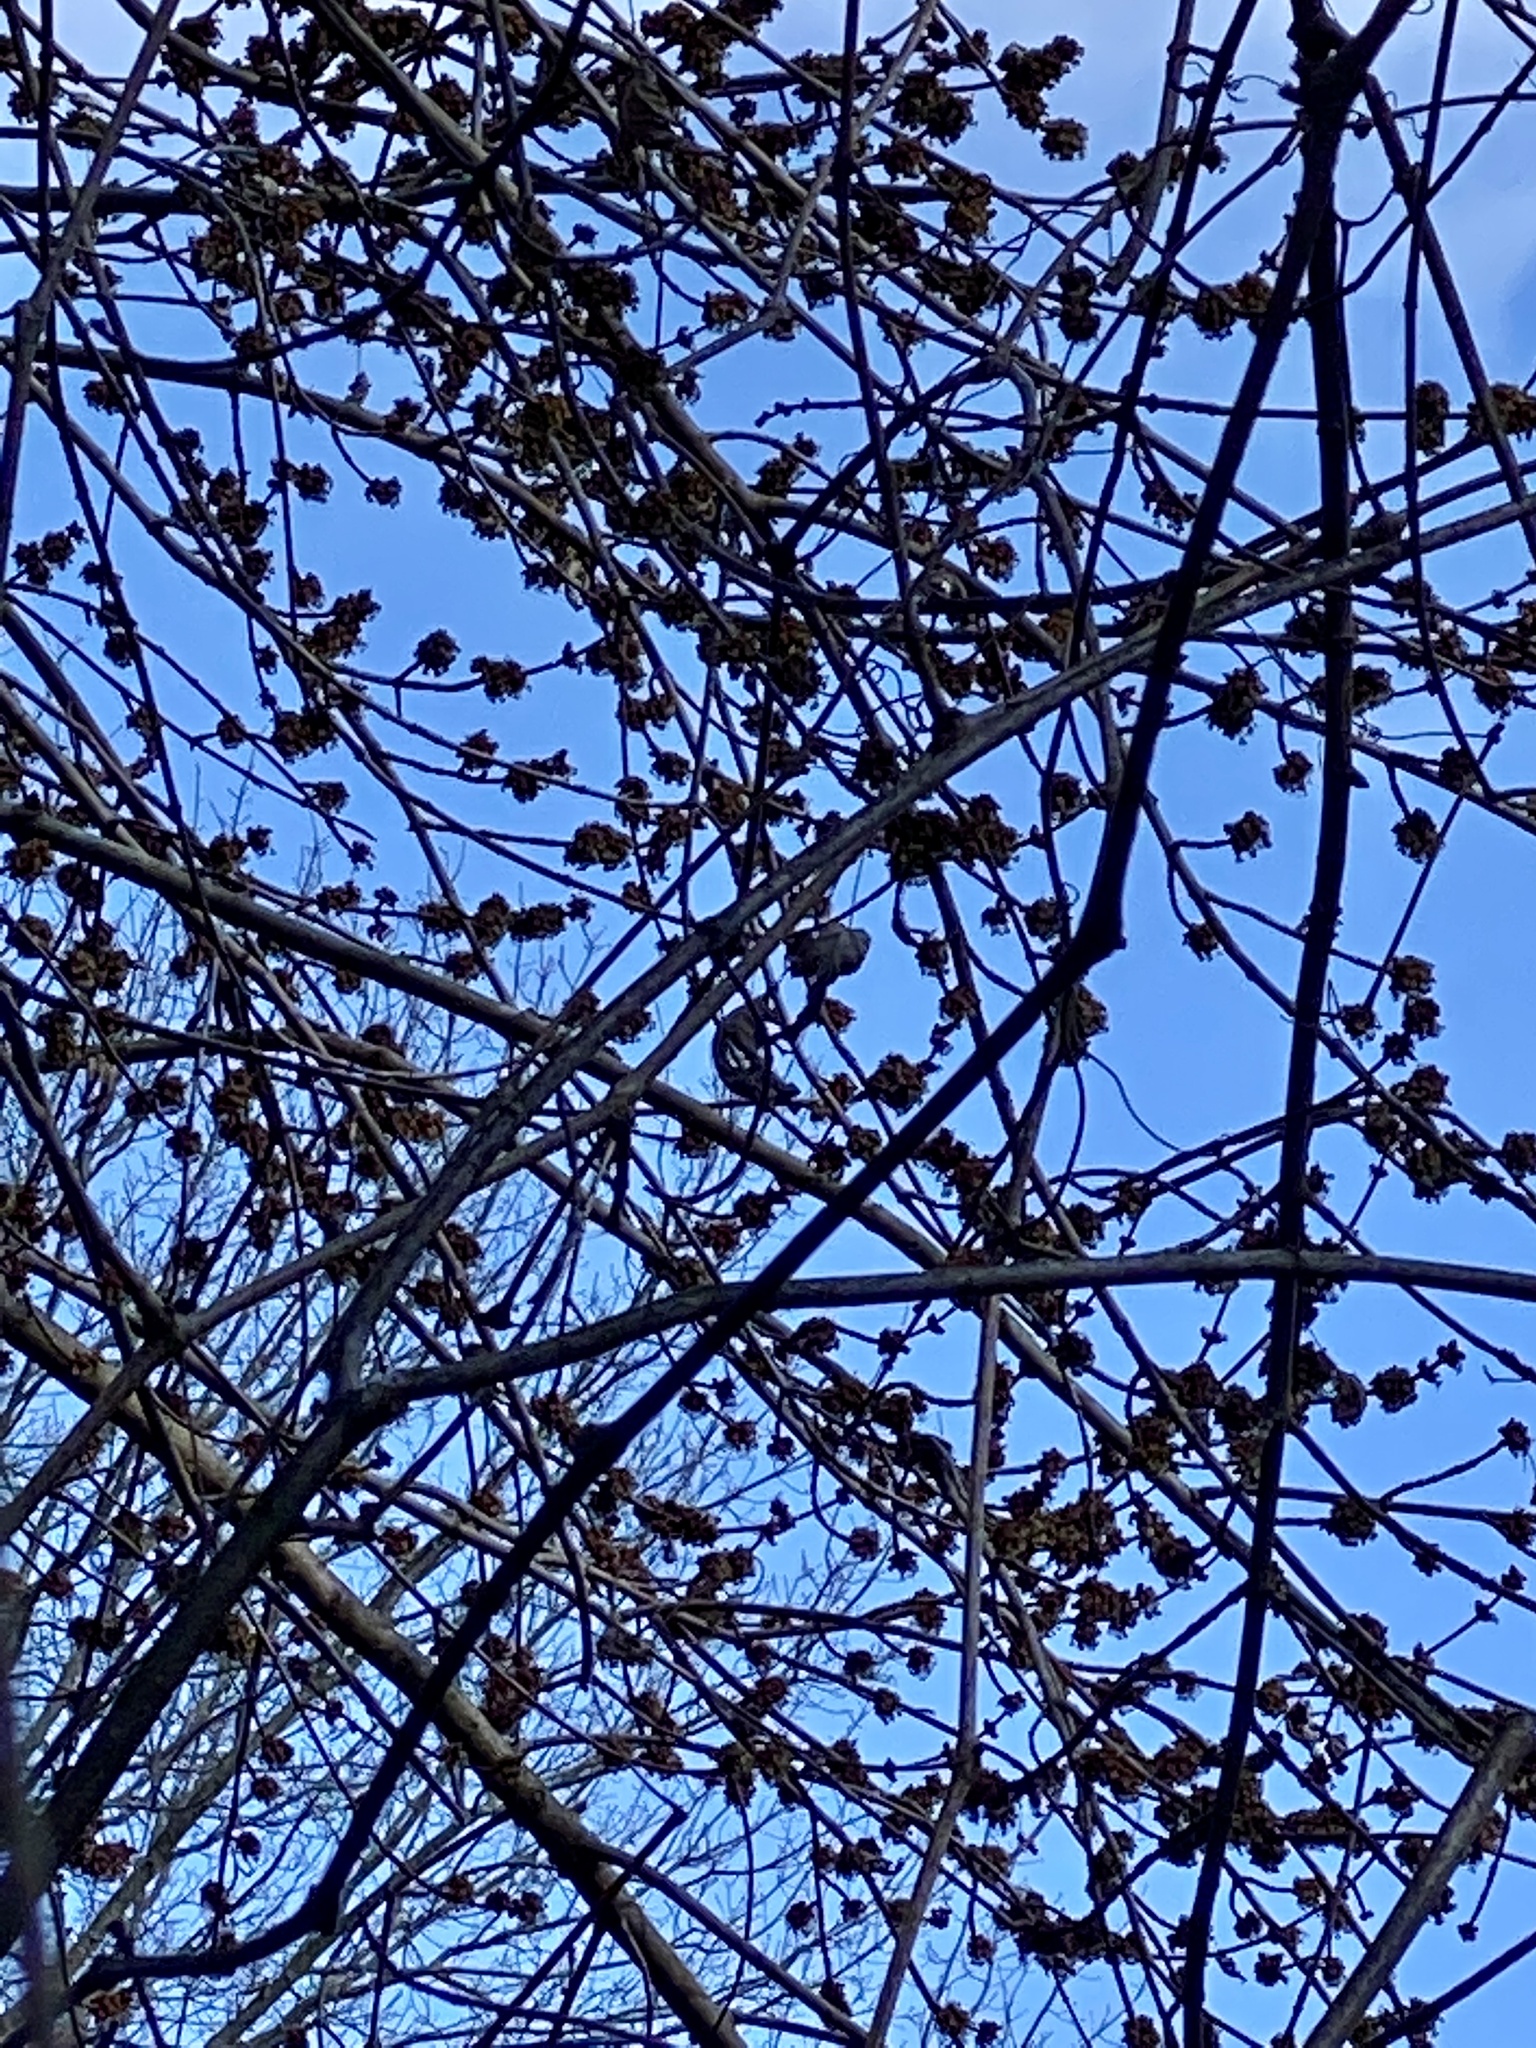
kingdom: Plantae
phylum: Tracheophyta
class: Magnoliopsida
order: Sapindales
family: Sapindaceae
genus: Acer
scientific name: Acer saccharinum
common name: Silver maple
